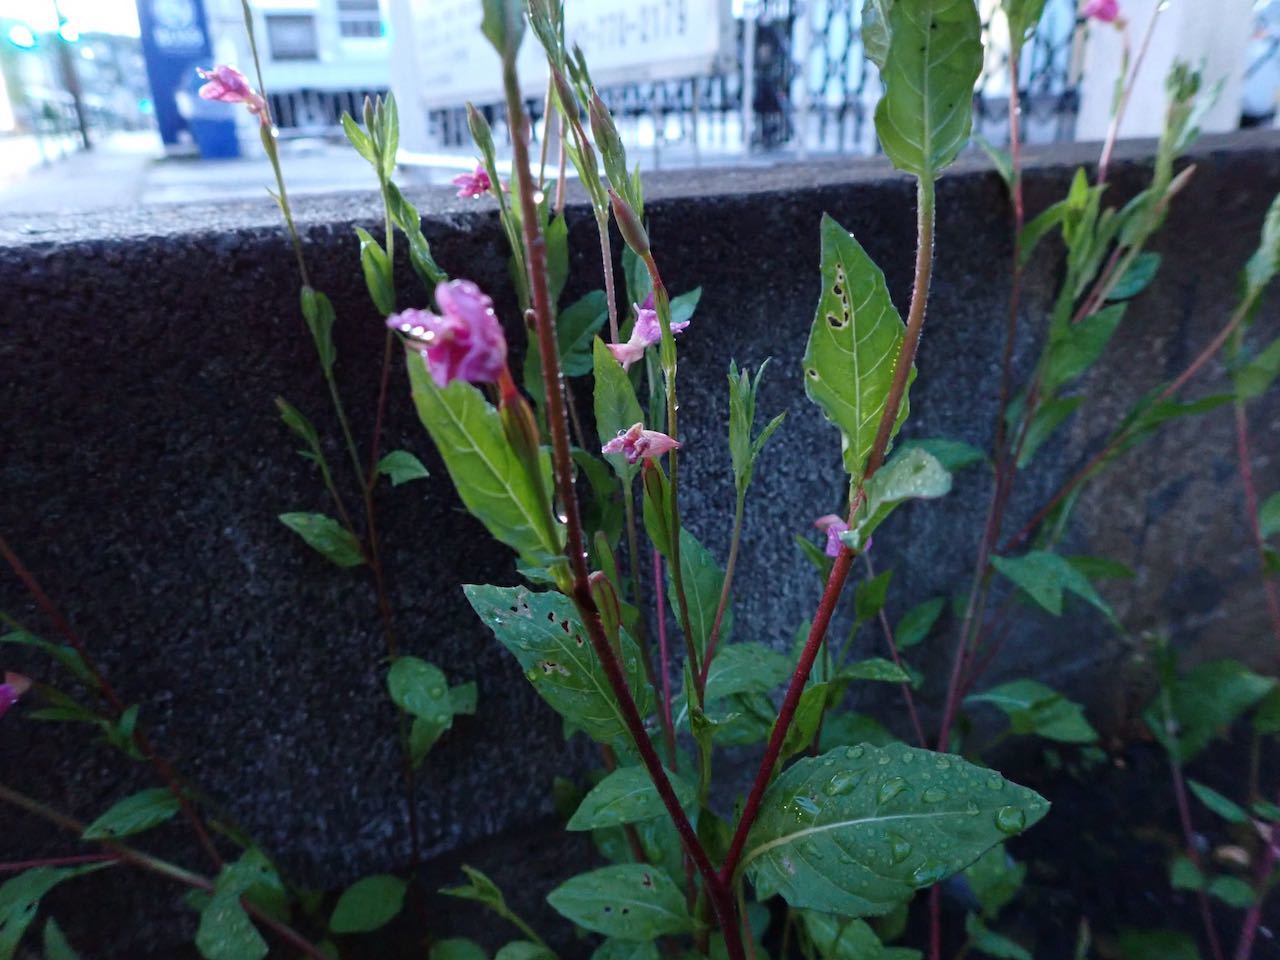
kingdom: Plantae
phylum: Tracheophyta
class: Magnoliopsida
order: Myrtales
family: Onagraceae
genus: Oenothera
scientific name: Oenothera rosea
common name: Rosy evening-primrose
